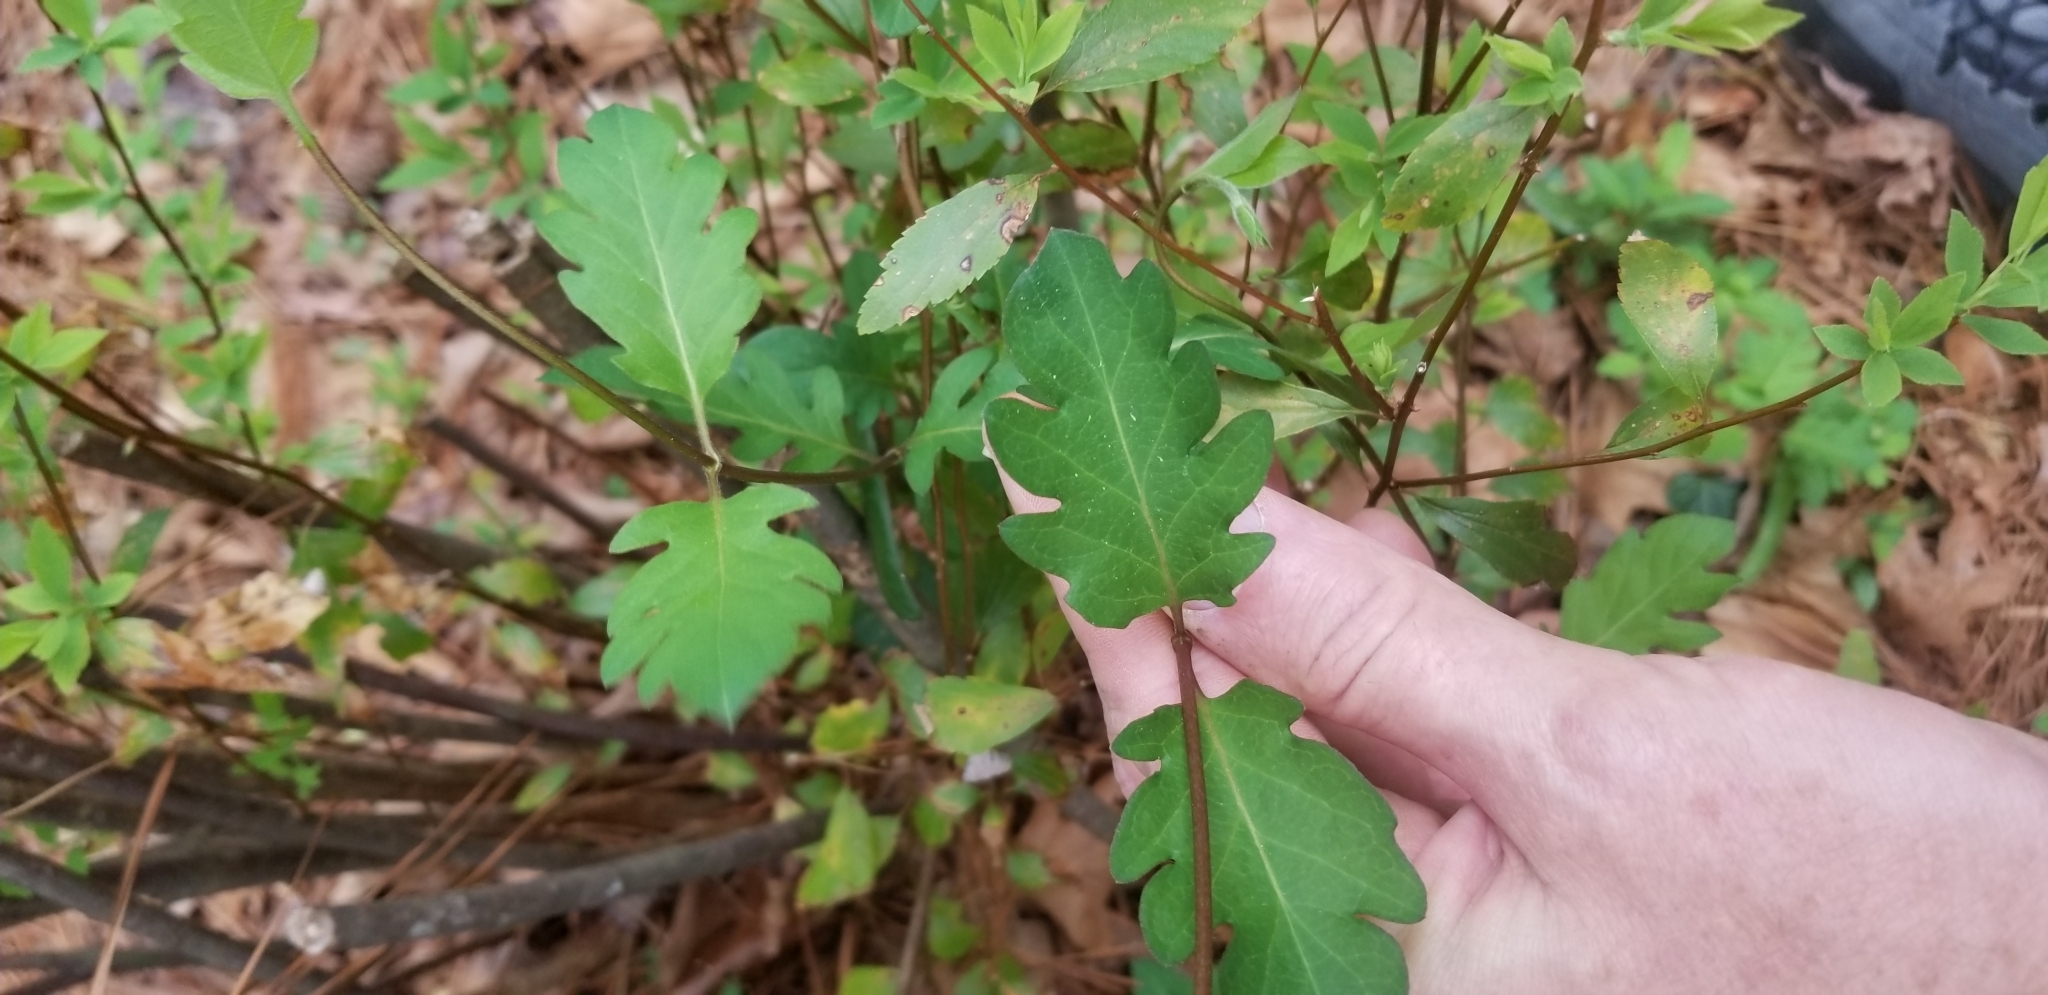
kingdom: Plantae
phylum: Tracheophyta
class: Magnoliopsida
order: Dipsacales
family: Caprifoliaceae
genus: Lonicera
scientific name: Lonicera japonica
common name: Japanese honeysuckle
